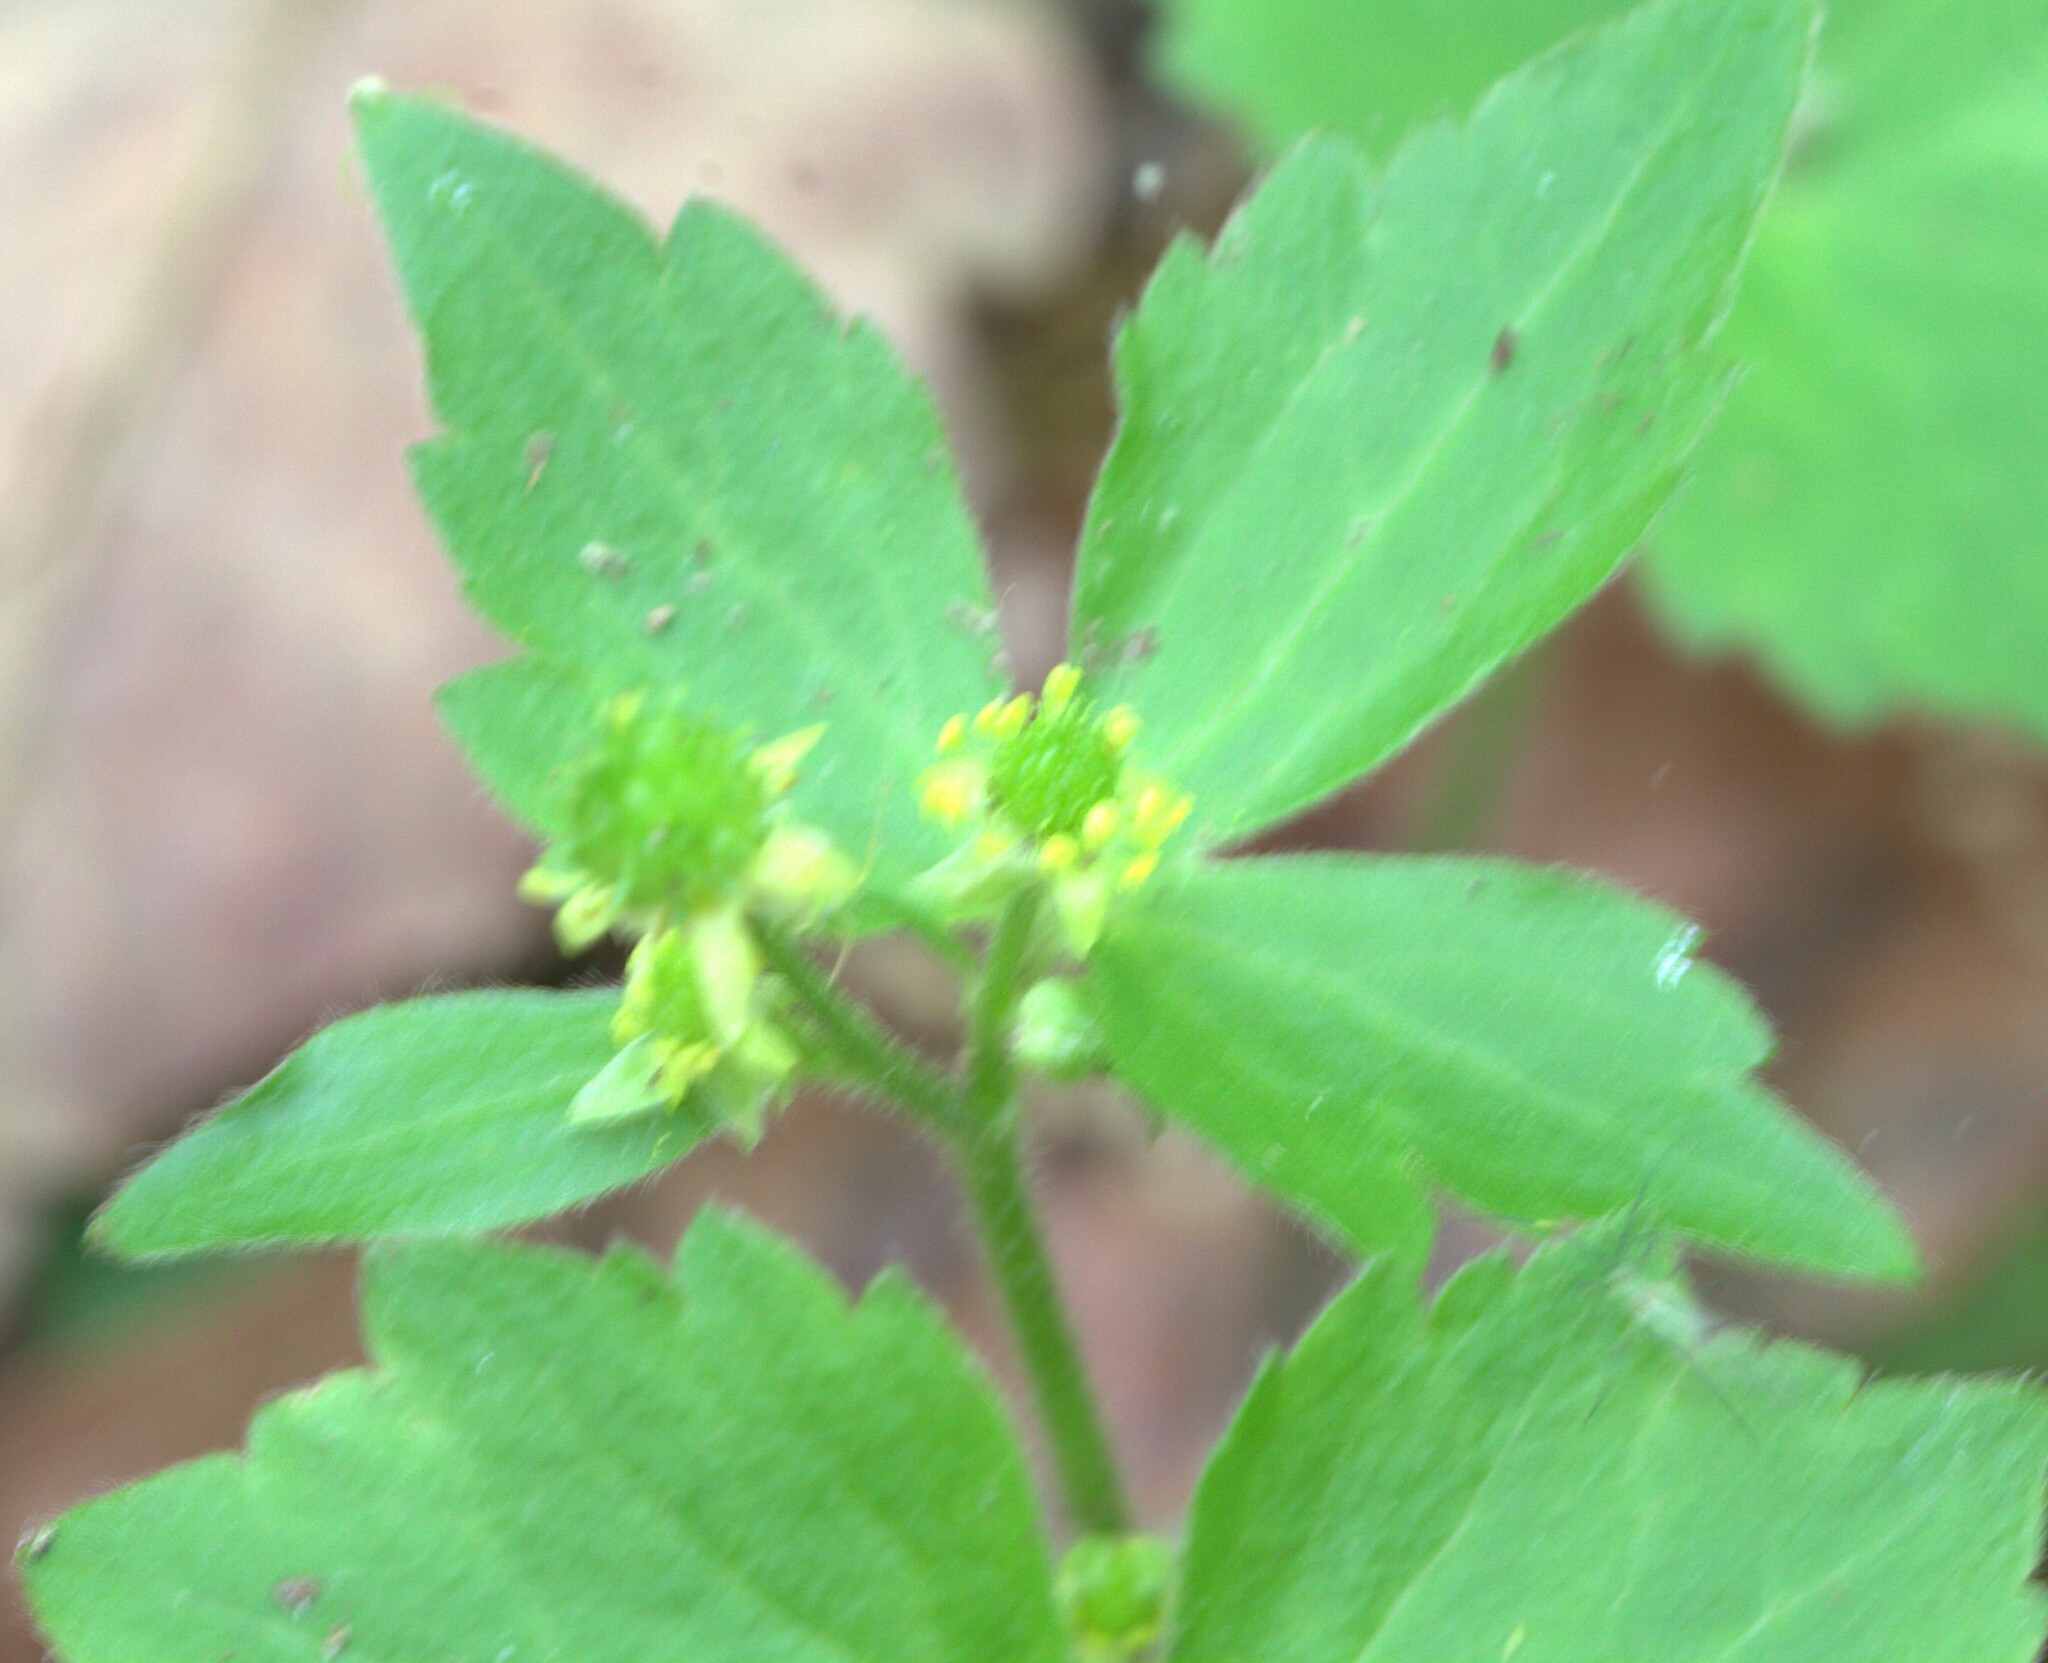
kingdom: Plantae
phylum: Tracheophyta
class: Magnoliopsida
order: Ranunculales
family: Ranunculaceae
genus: Ranunculus
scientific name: Ranunculus recurvatus
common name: Blisterwort
